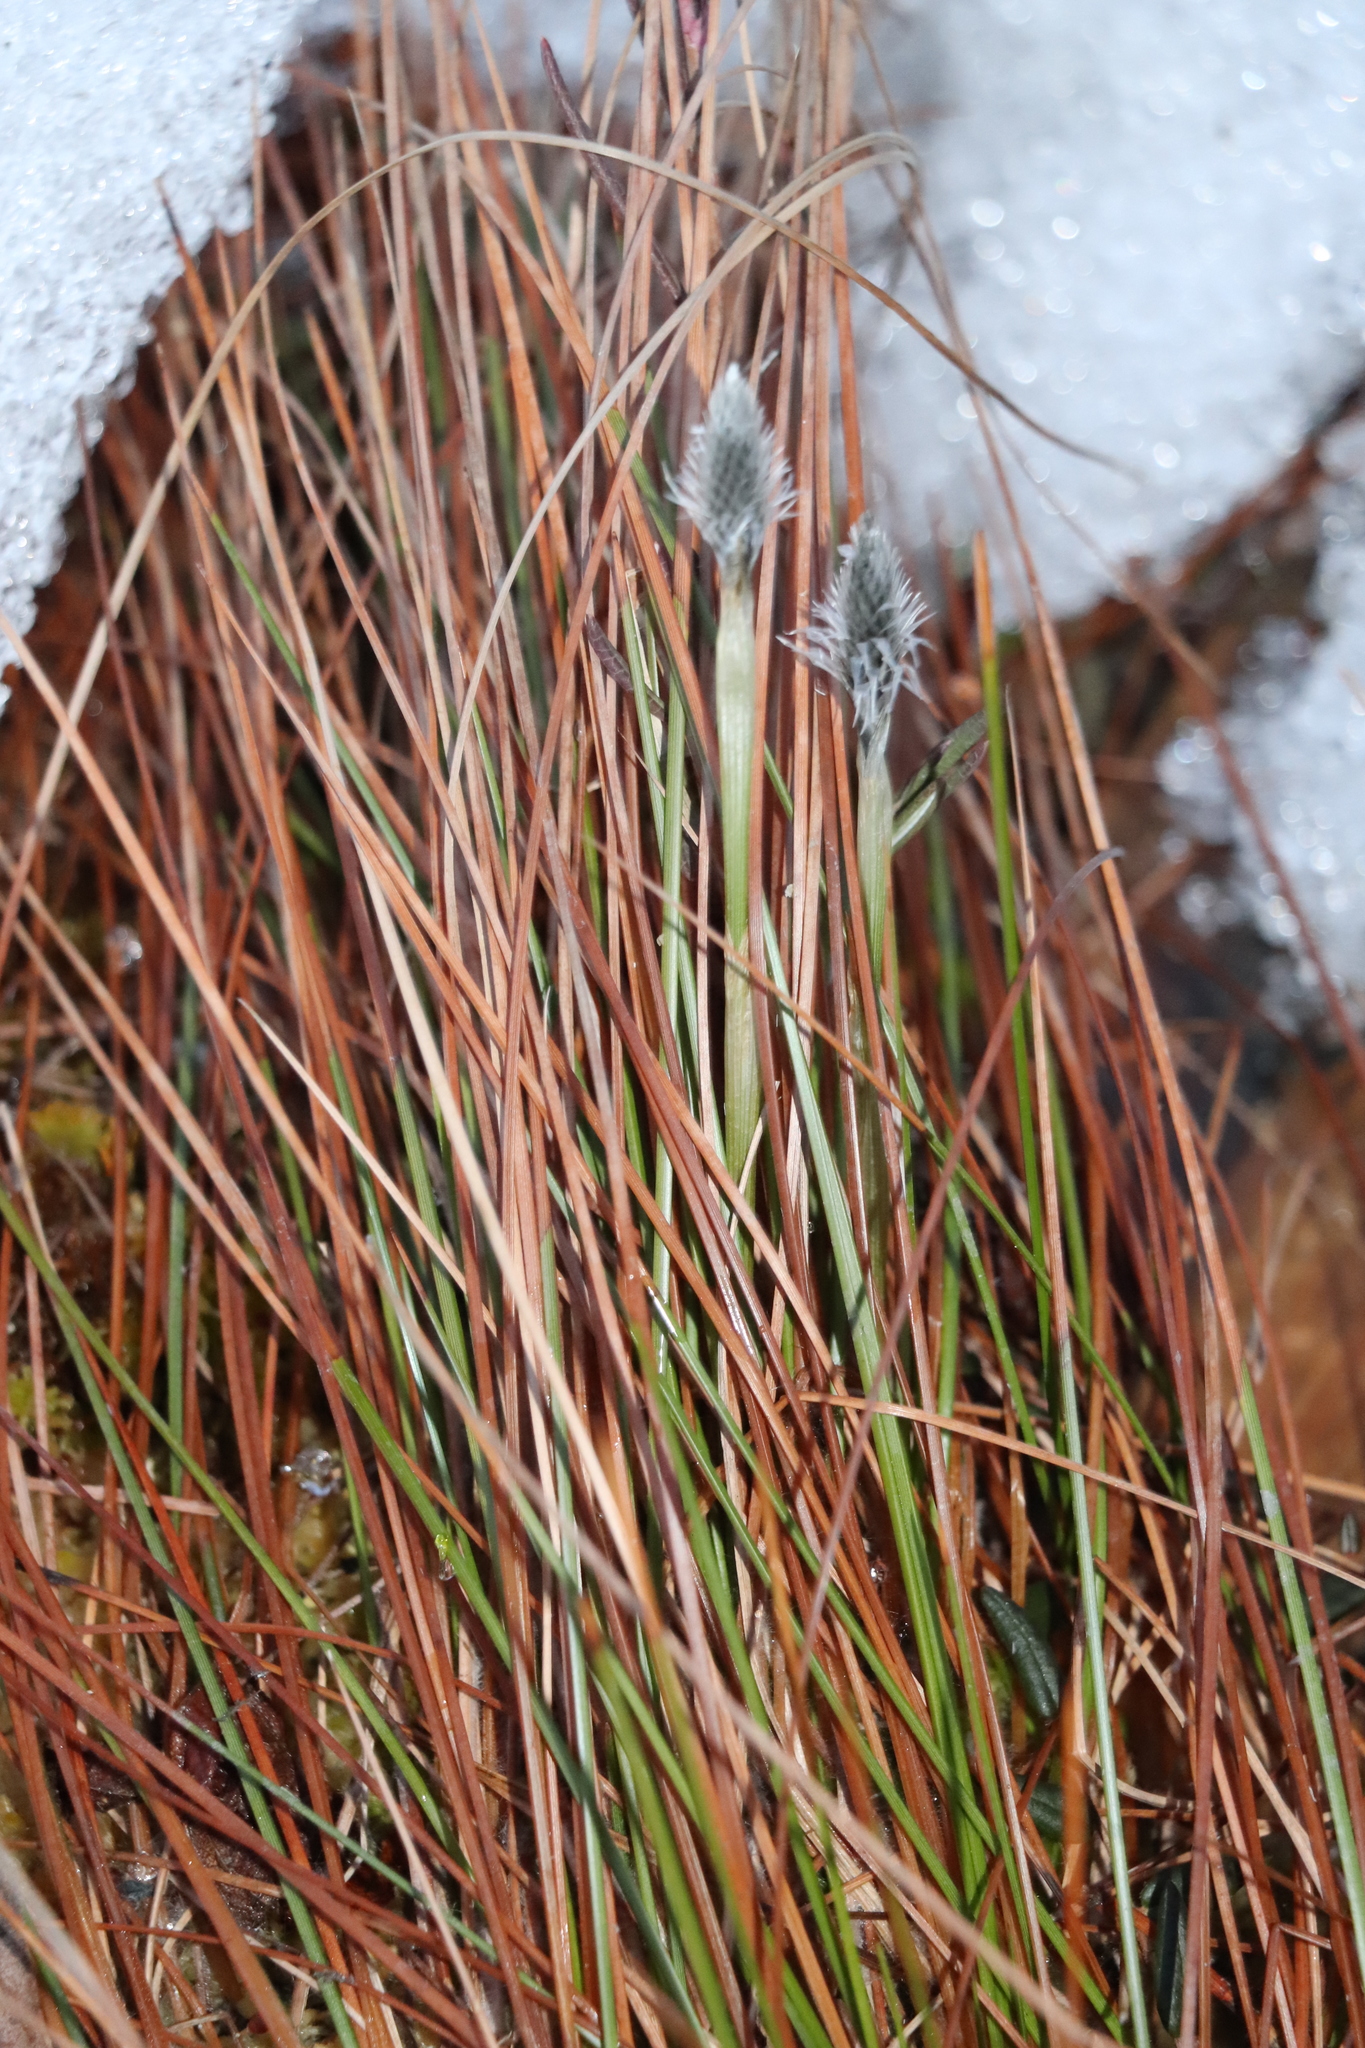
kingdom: Plantae
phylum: Tracheophyta
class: Liliopsida
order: Poales
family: Cyperaceae
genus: Eriophorum
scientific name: Eriophorum vaginatum
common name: Hare's-tail cottongrass
